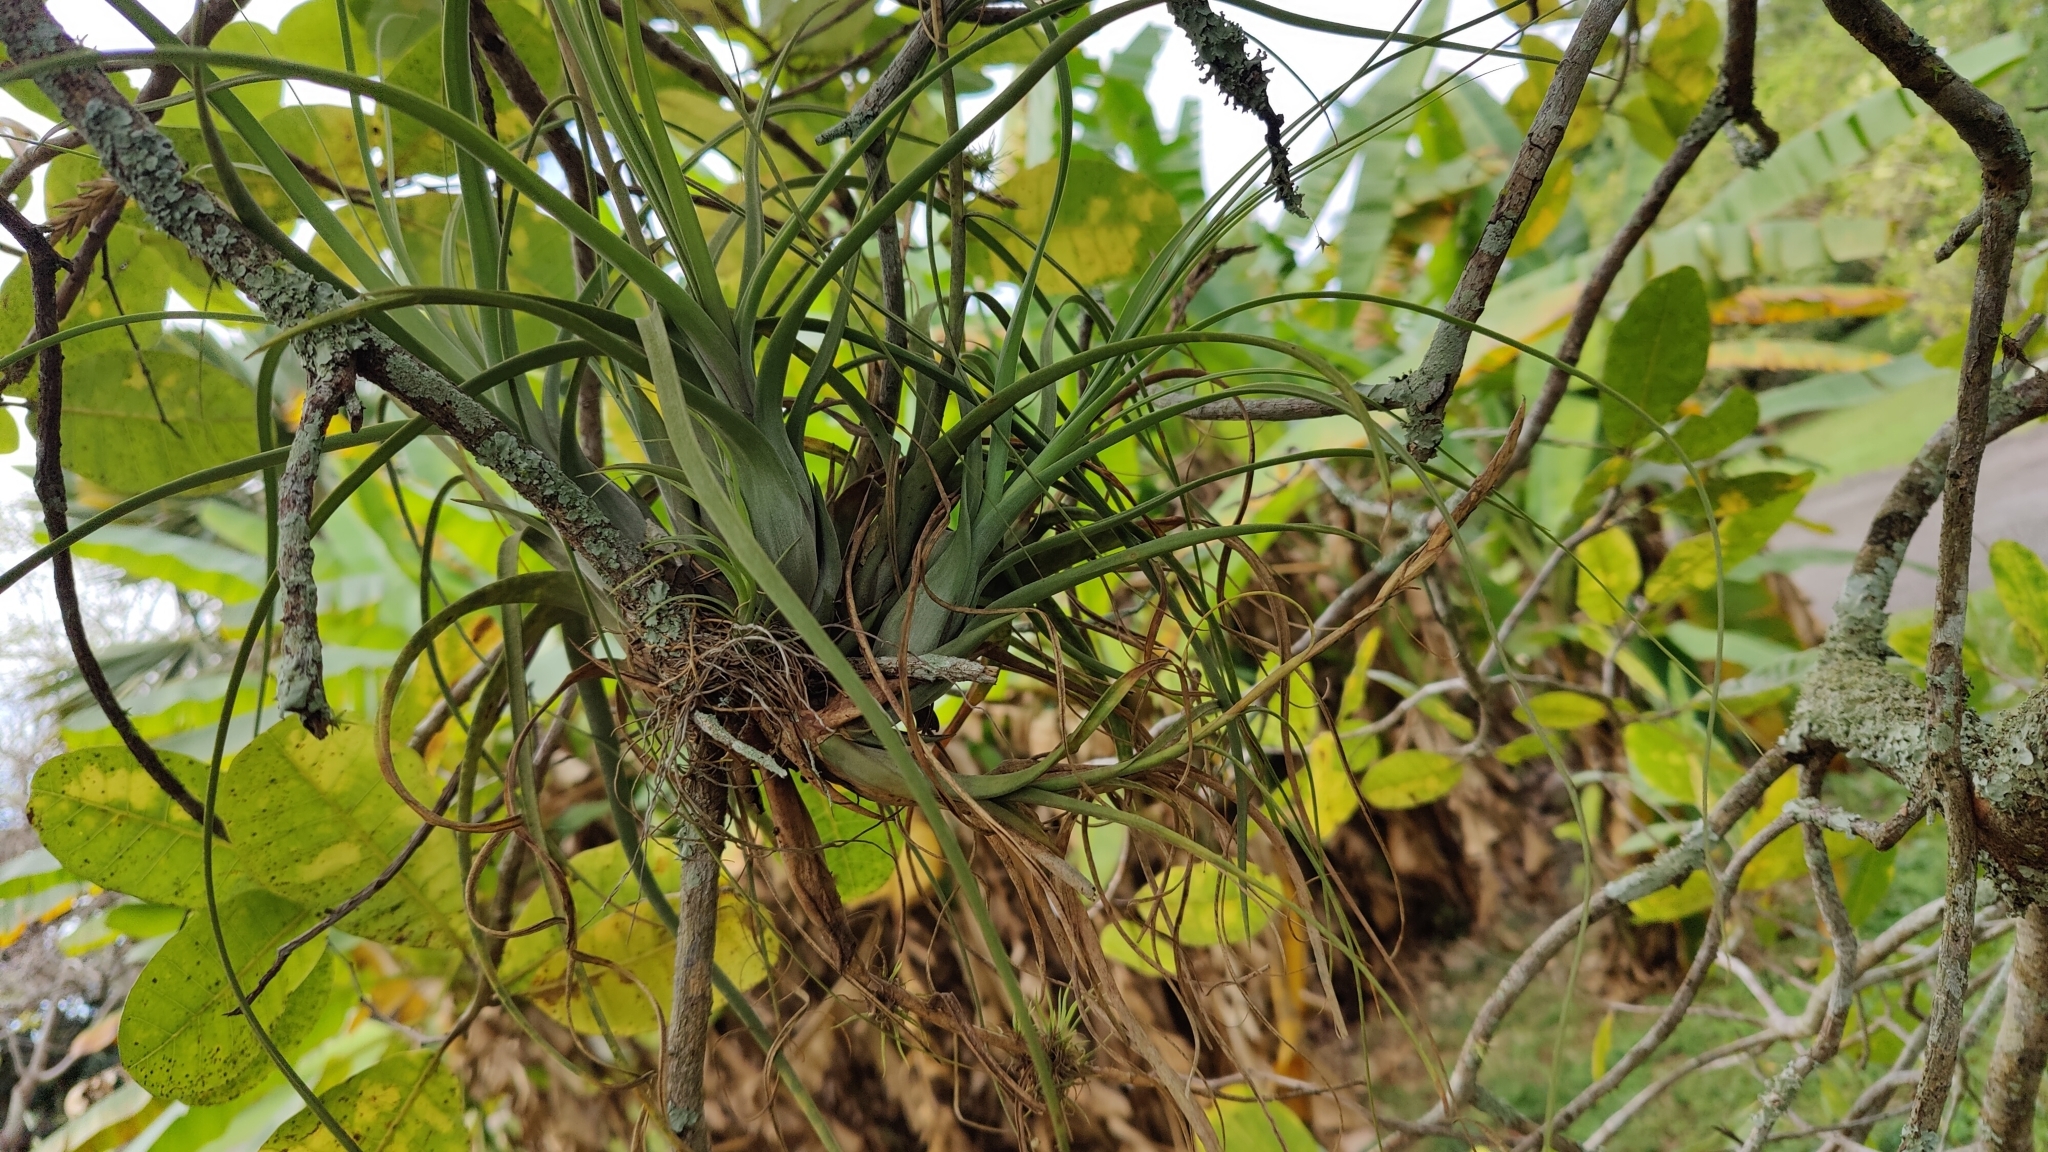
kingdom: Plantae
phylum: Tracheophyta
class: Liliopsida
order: Poales
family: Bromeliaceae
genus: Tillandsia
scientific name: Tillandsia balbisiana
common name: Northern needleleaf
